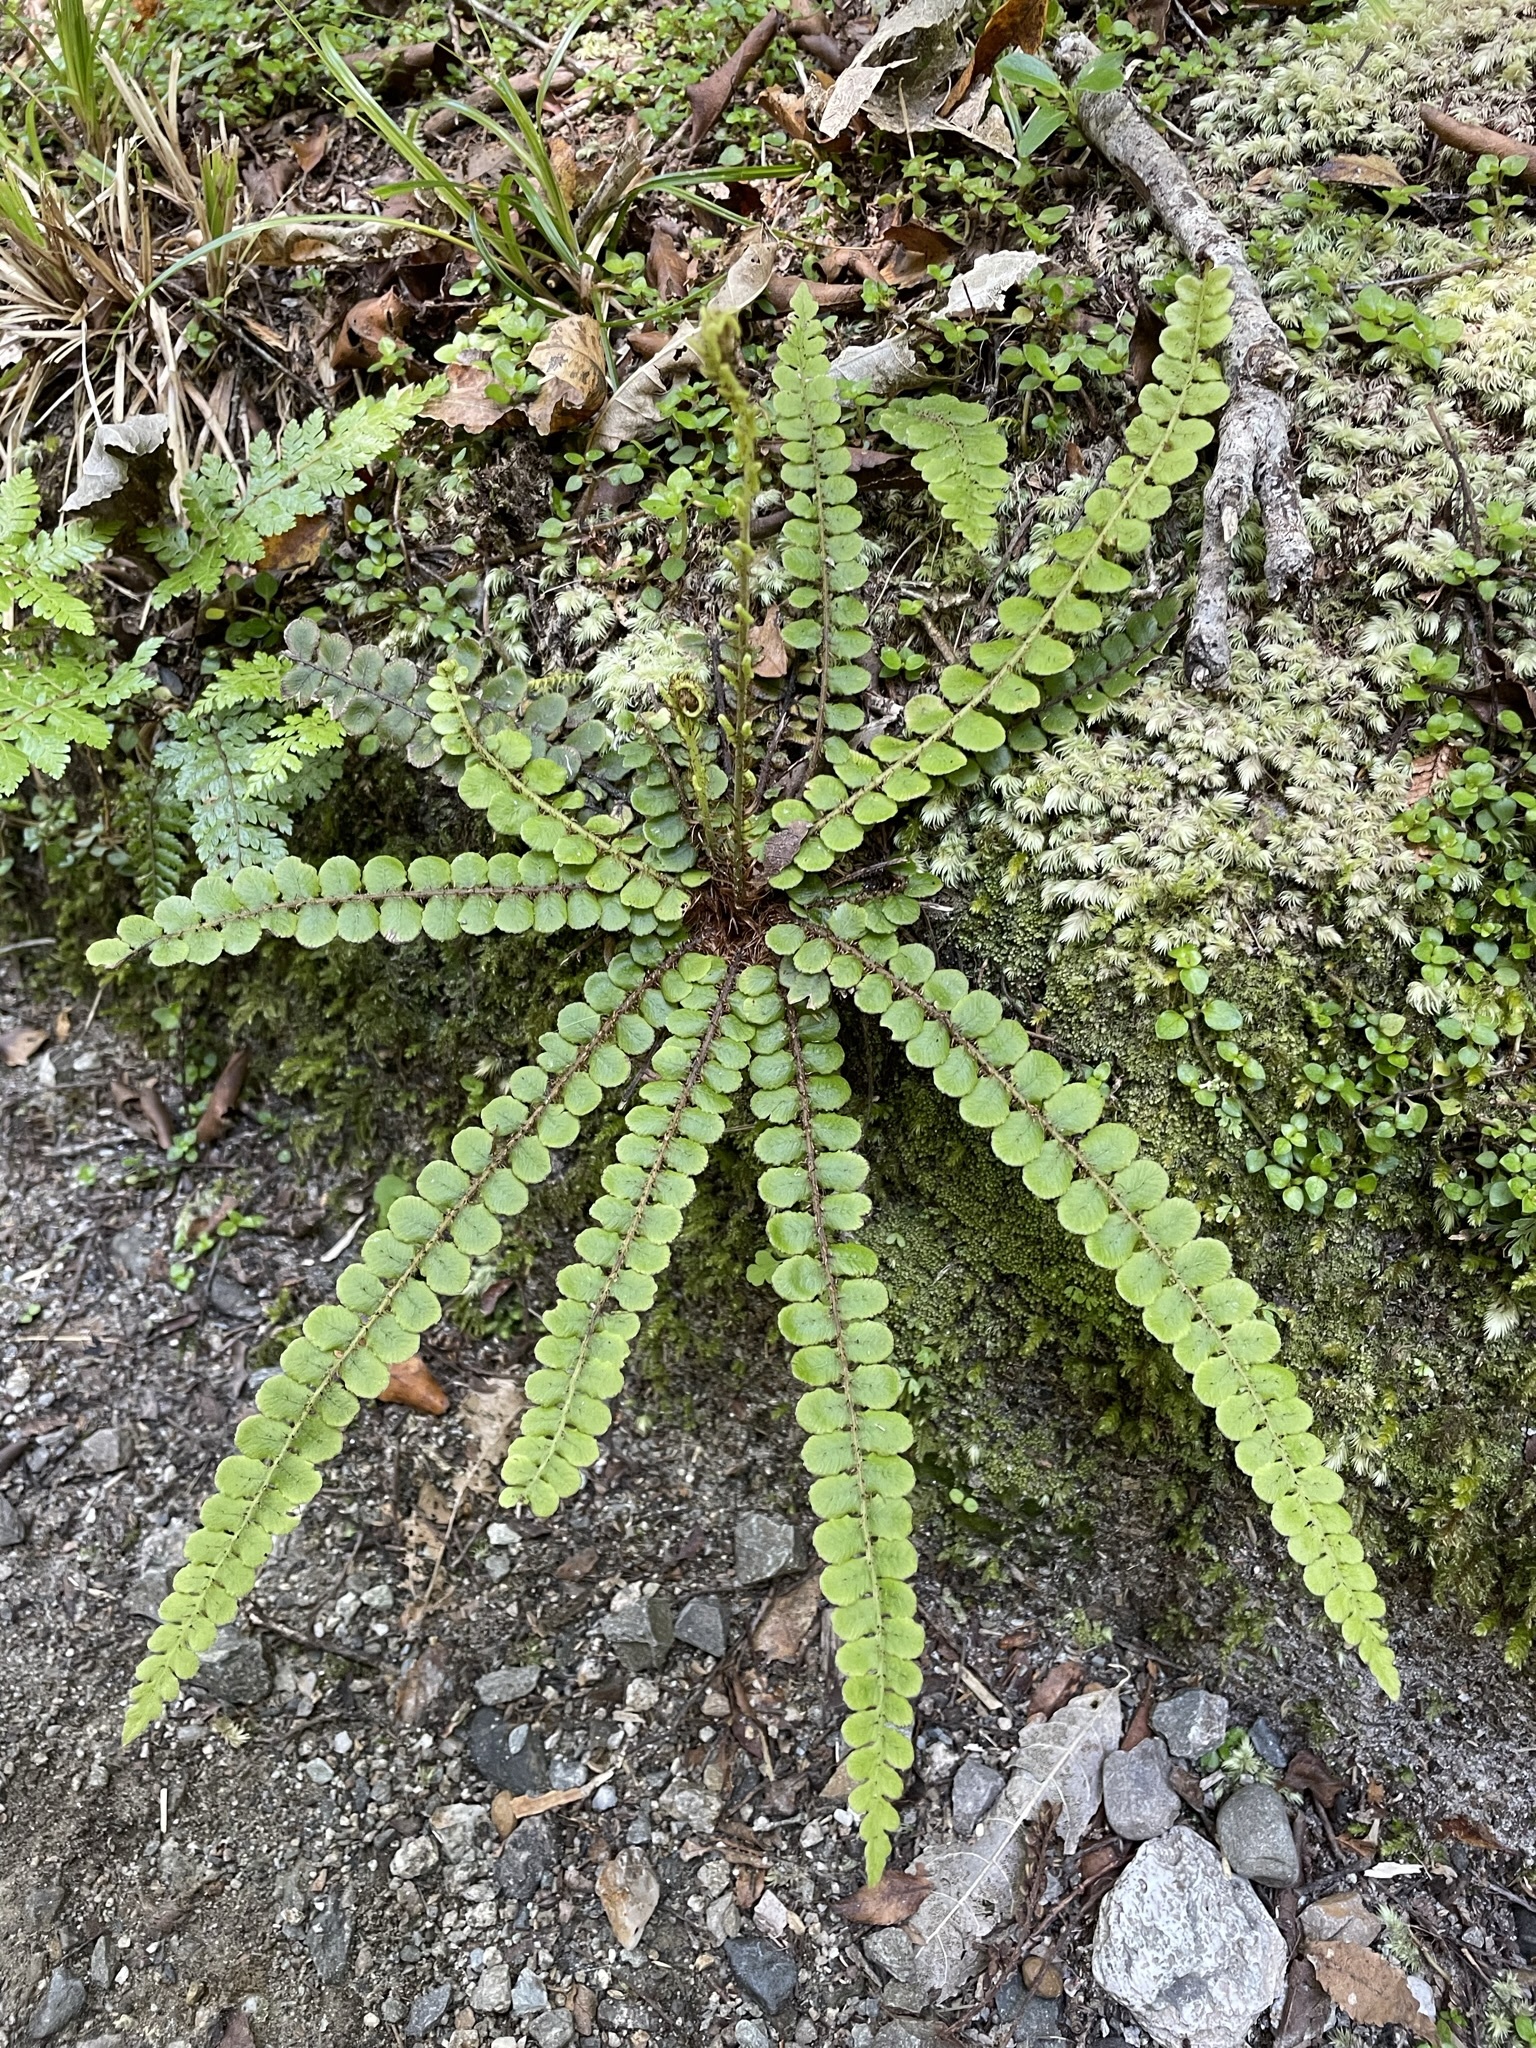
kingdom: Plantae
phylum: Tracheophyta
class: Polypodiopsida
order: Polypodiales
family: Blechnaceae
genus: Cranfillia
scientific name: Cranfillia fluviatilis
